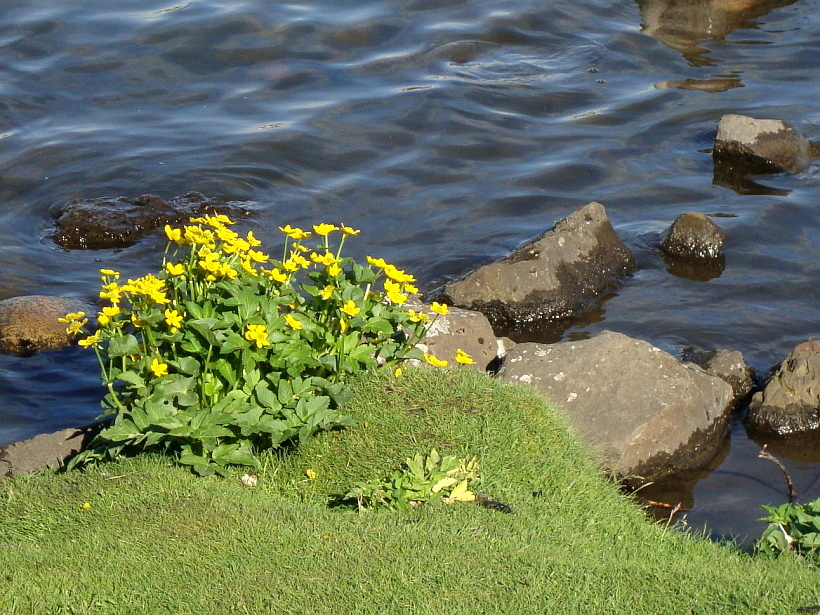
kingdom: Plantae
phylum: Tracheophyta
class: Magnoliopsida
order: Ranunculales
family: Ranunculaceae
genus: Caltha
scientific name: Caltha palustris
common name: Marsh marigold
